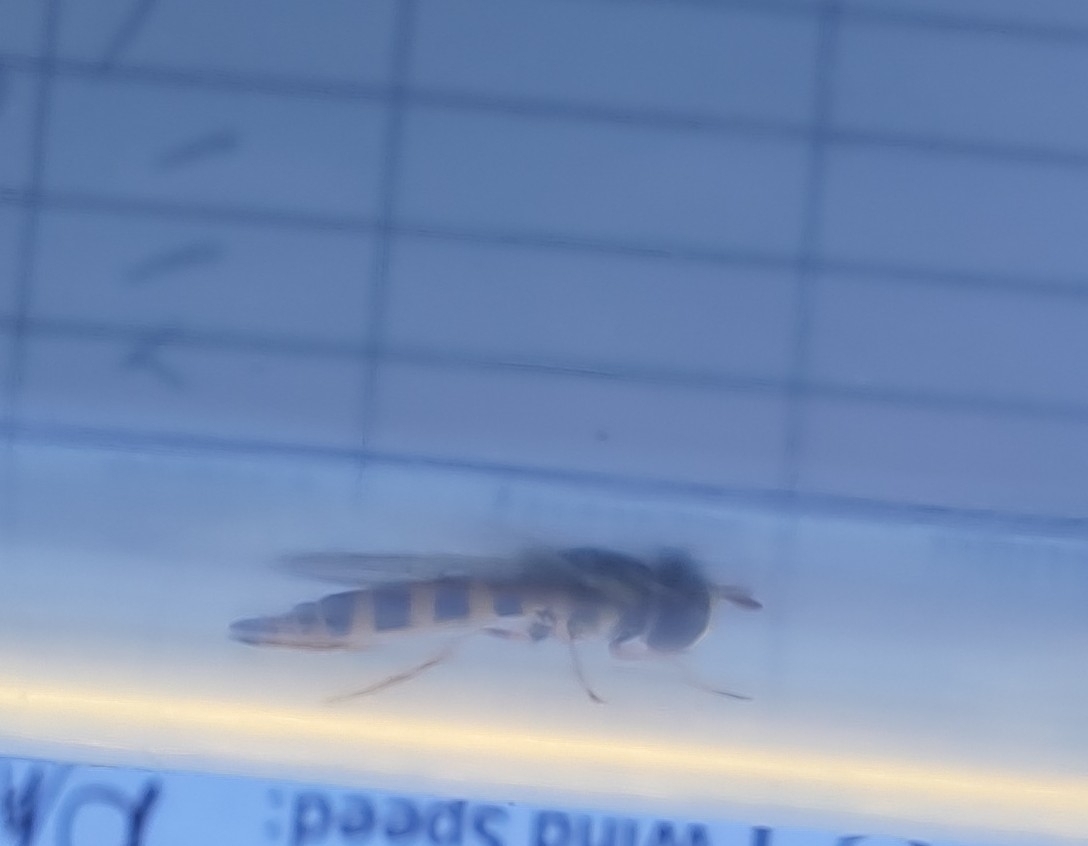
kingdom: Animalia
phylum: Arthropoda
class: Insecta
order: Diptera
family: Syrphidae
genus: Ischiodon
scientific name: Ischiodon aegyptius
